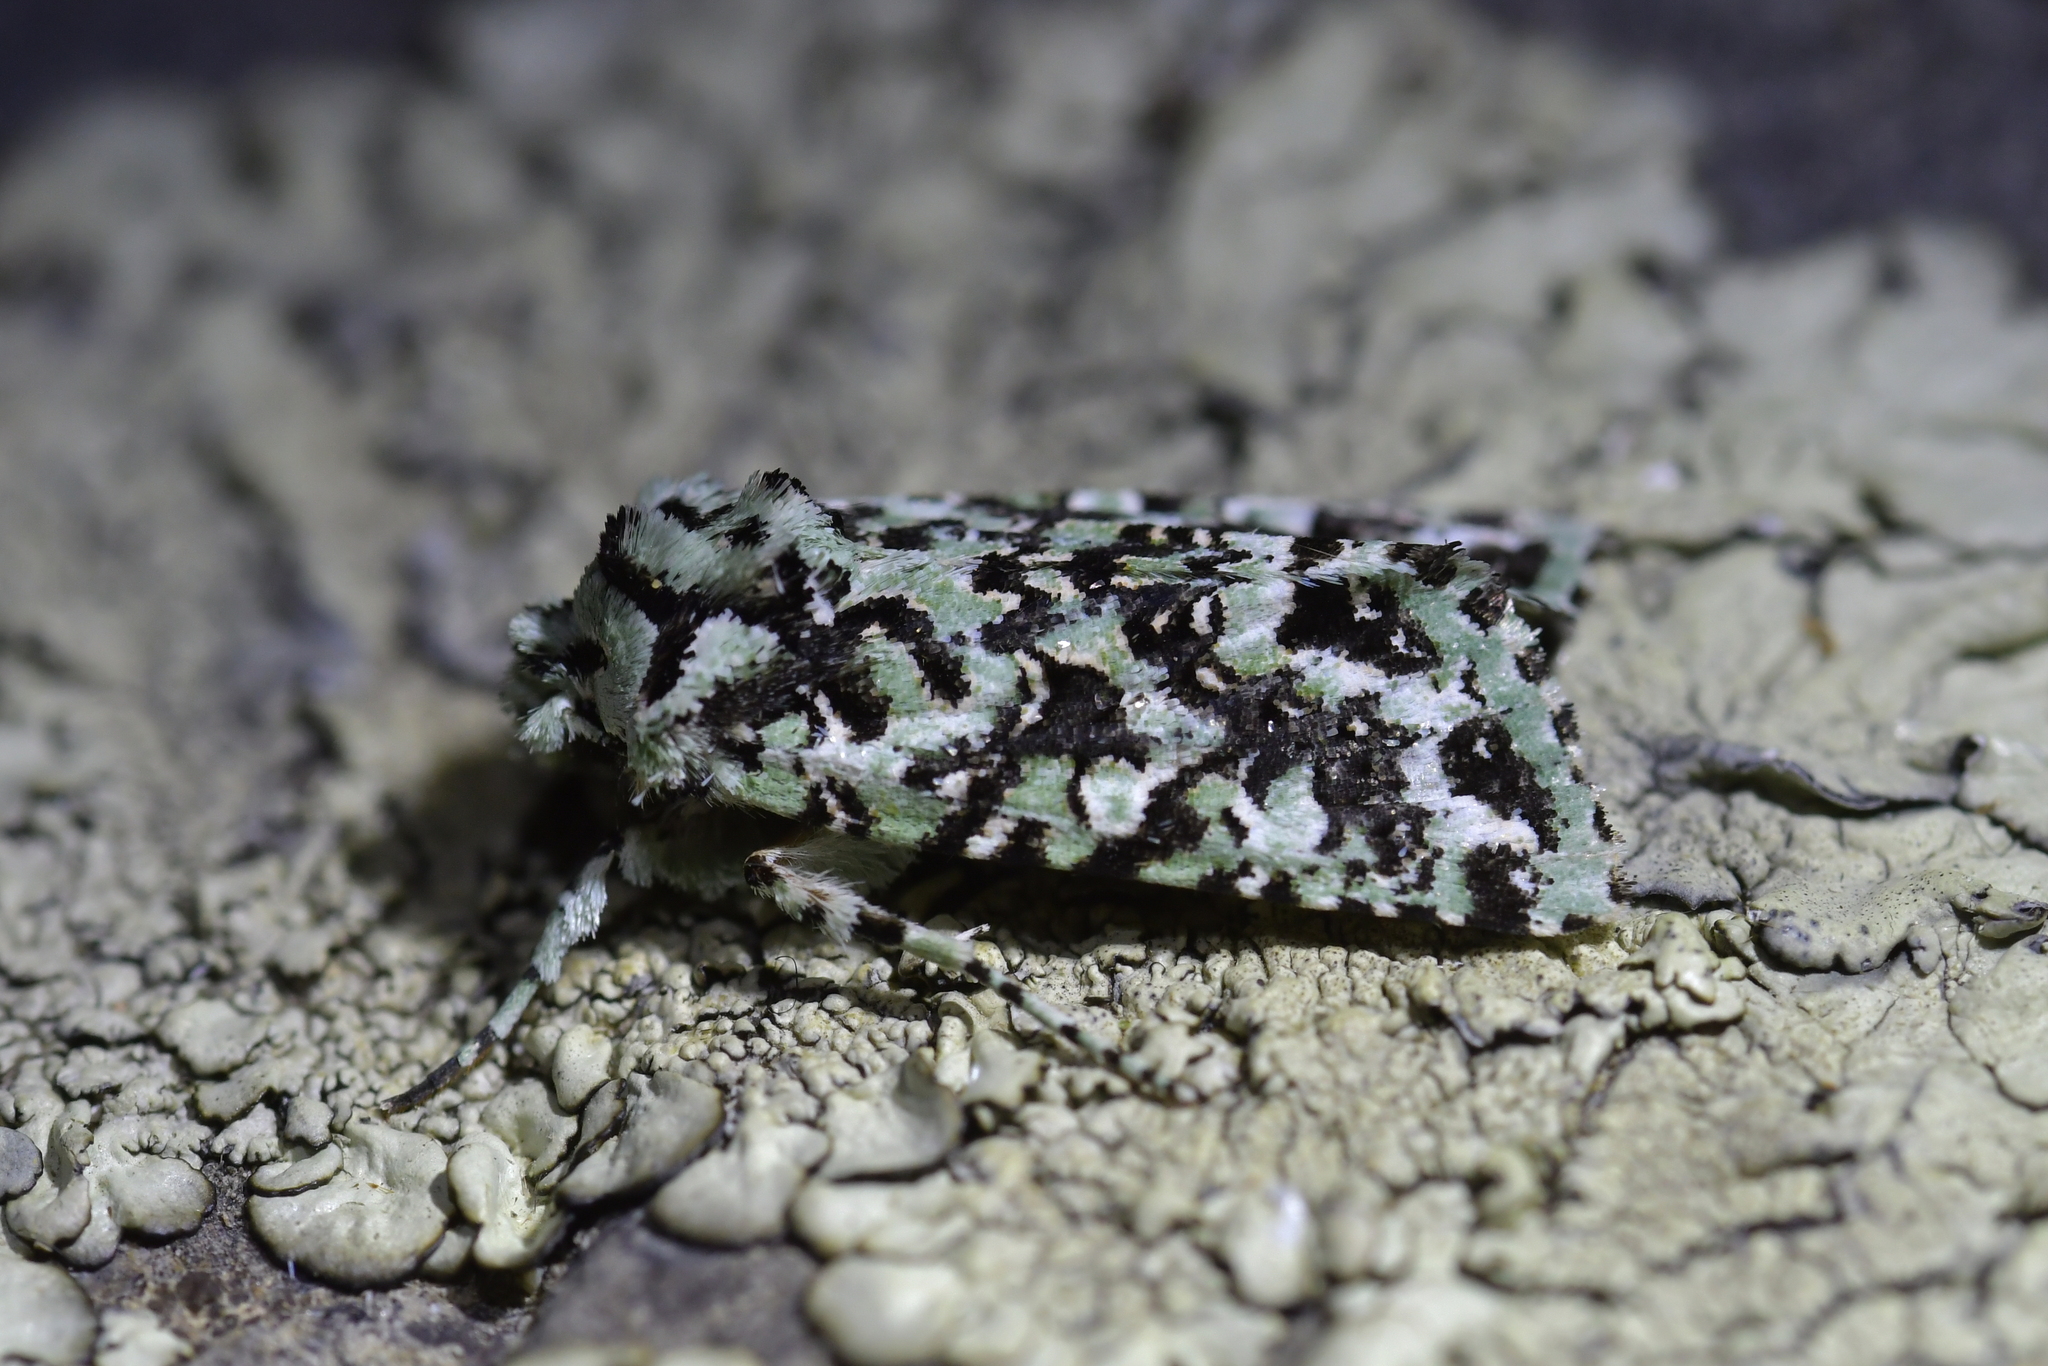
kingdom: Animalia
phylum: Arthropoda
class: Insecta
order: Lepidoptera
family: Noctuidae
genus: Meterana
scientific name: Meterana
